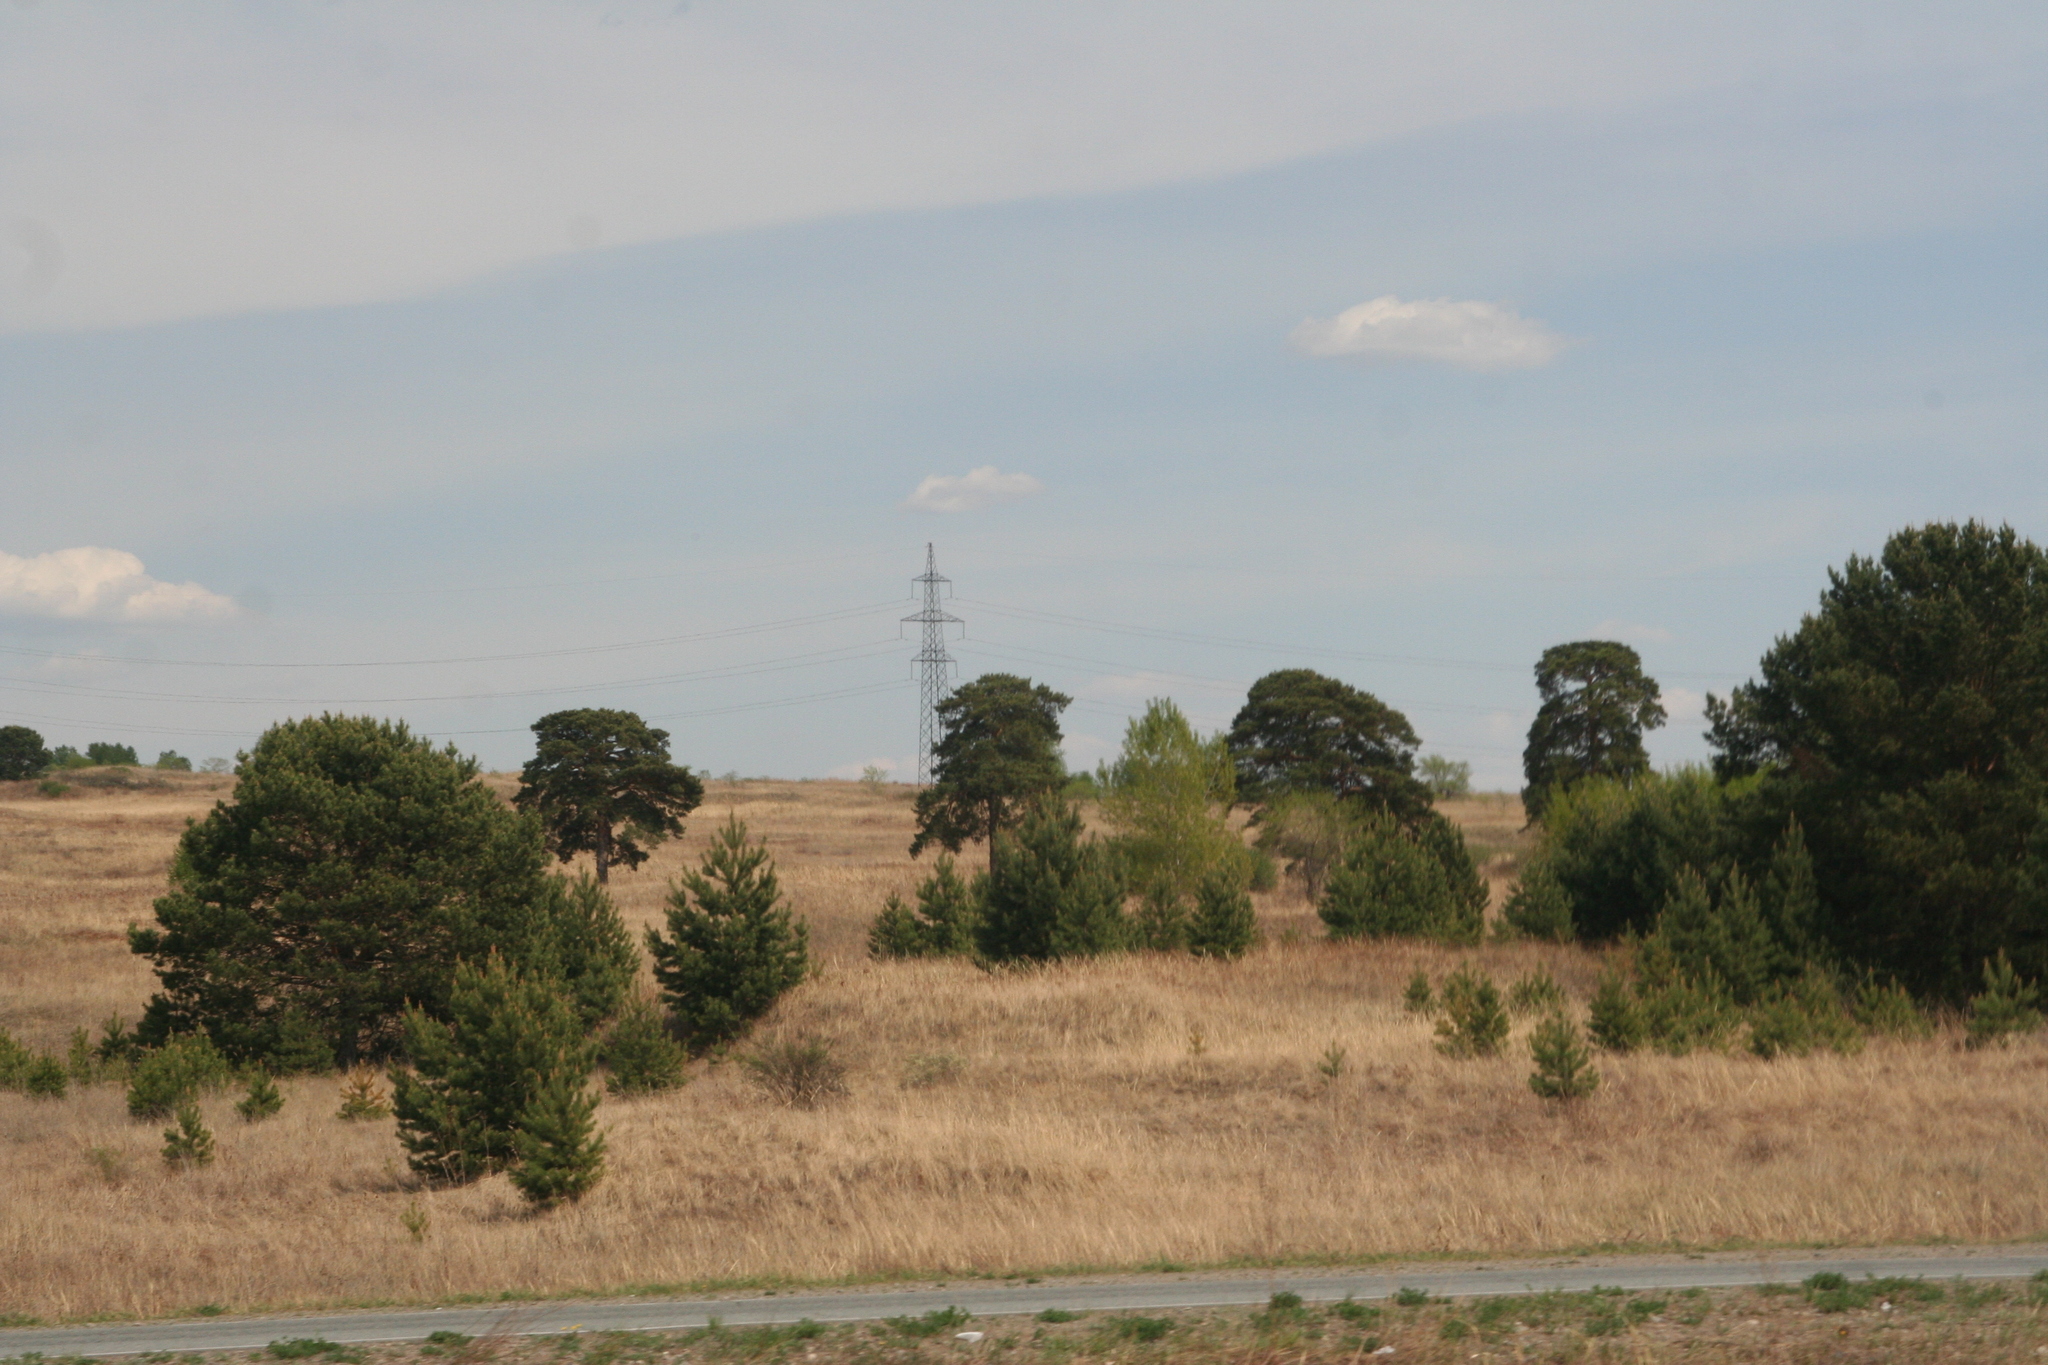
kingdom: Plantae
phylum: Tracheophyta
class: Pinopsida
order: Pinales
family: Pinaceae
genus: Pinus
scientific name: Pinus sylvestris
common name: Scots pine
